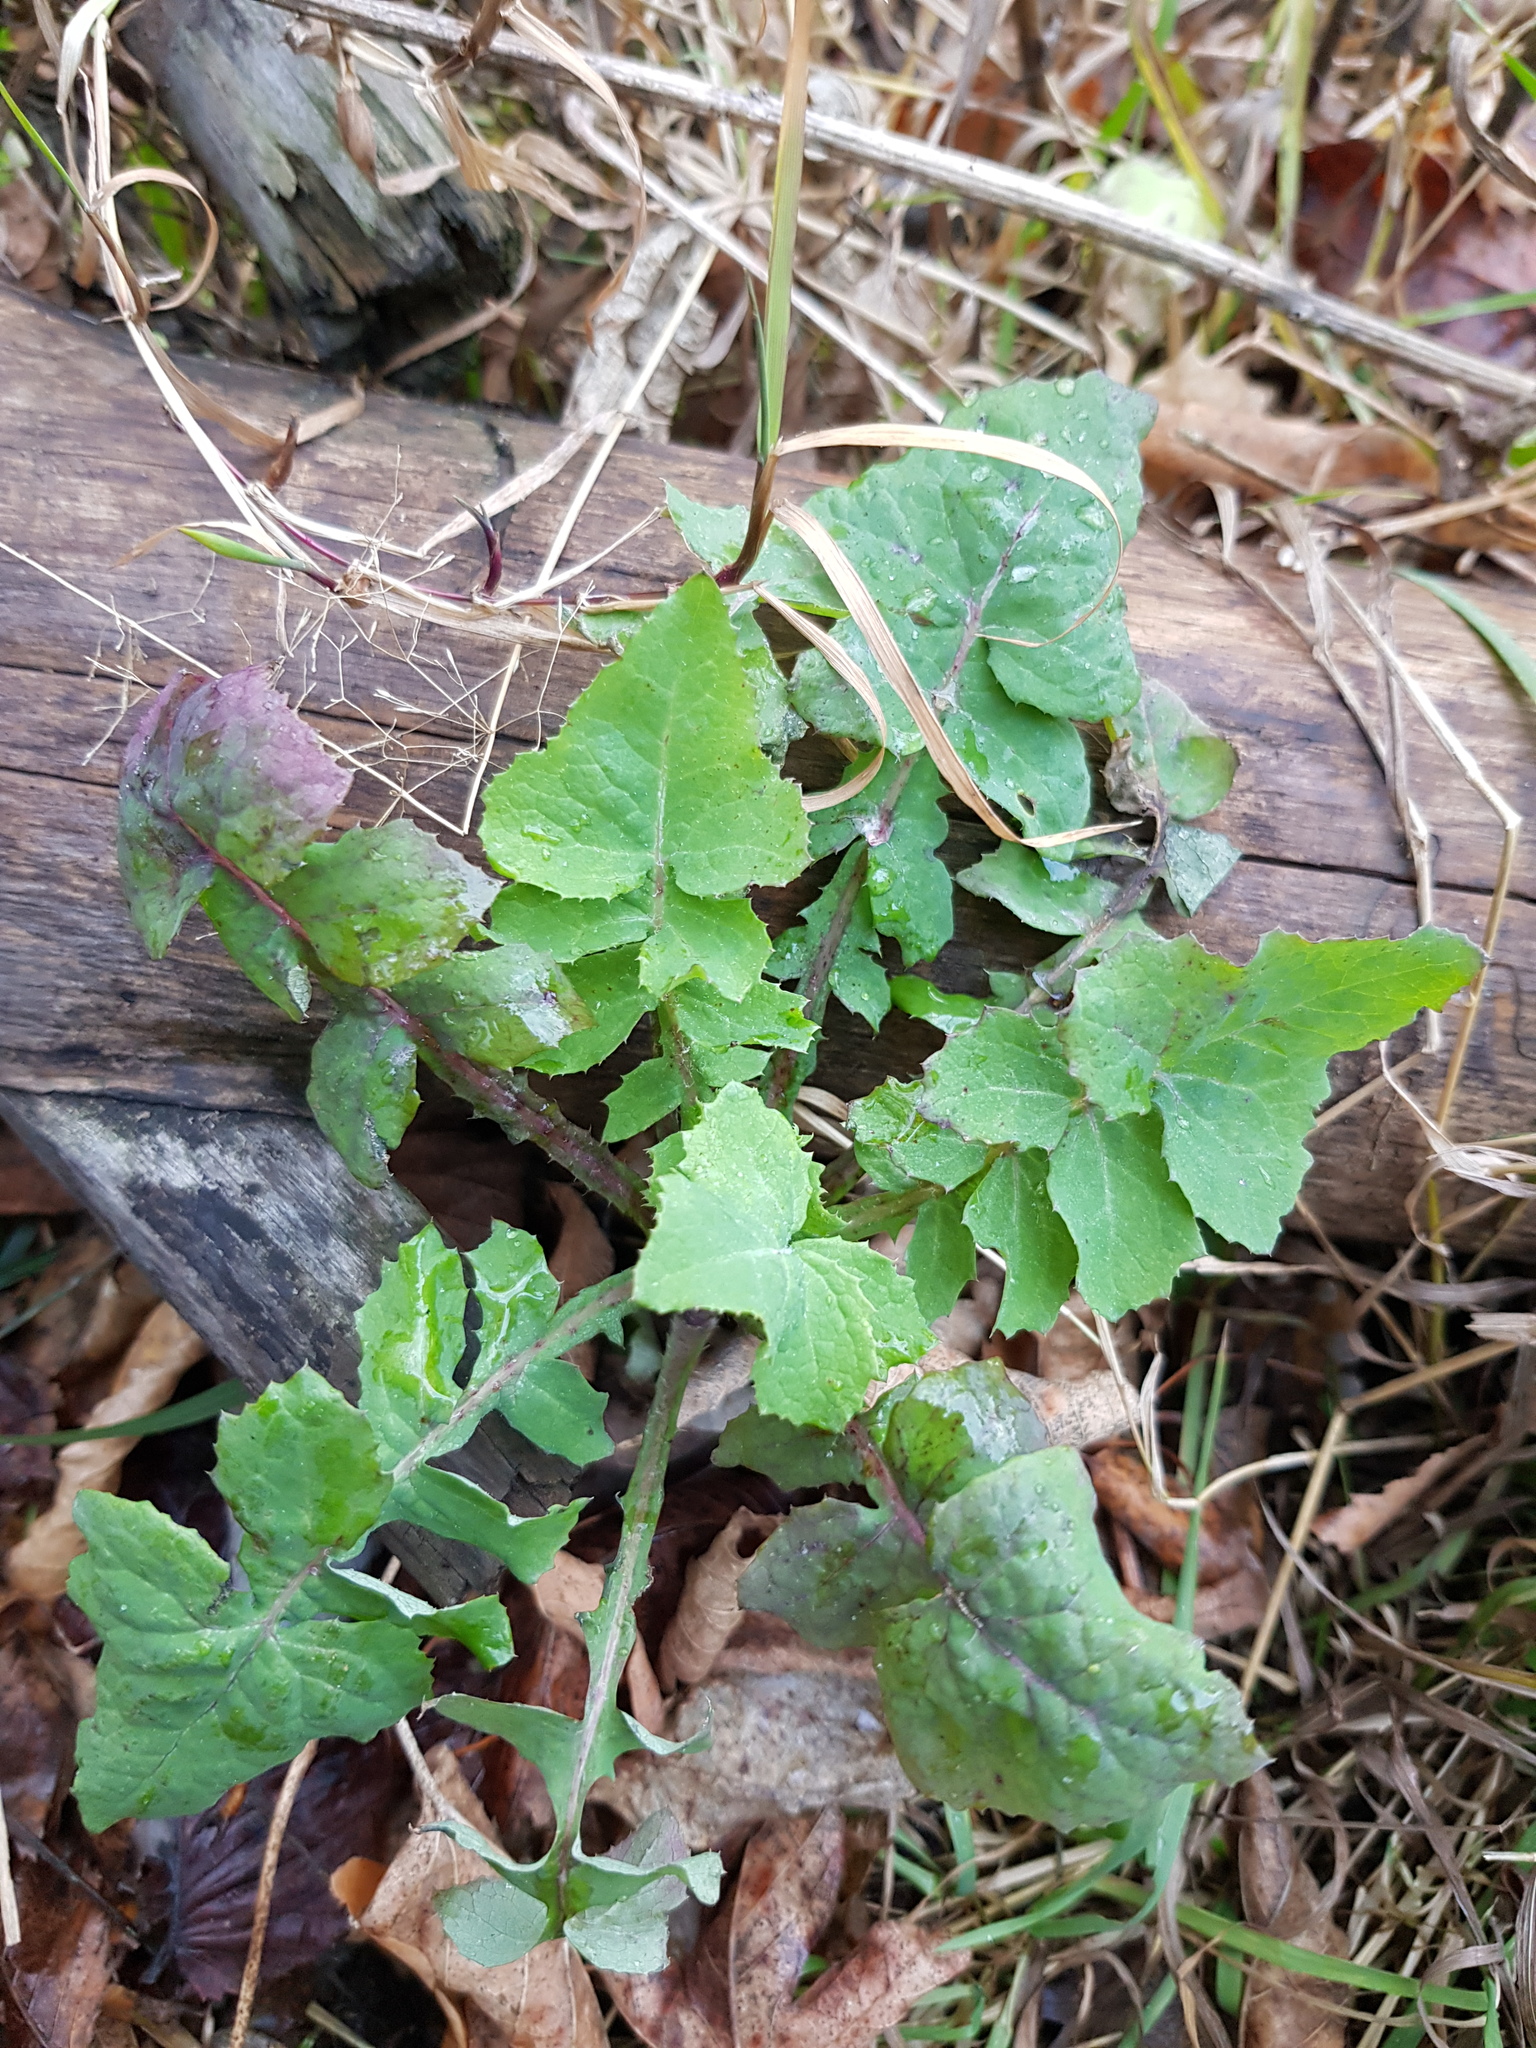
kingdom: Plantae
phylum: Tracheophyta
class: Magnoliopsida
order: Asterales
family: Asteraceae
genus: Sonchus
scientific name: Sonchus oleraceus
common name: Common sowthistle
